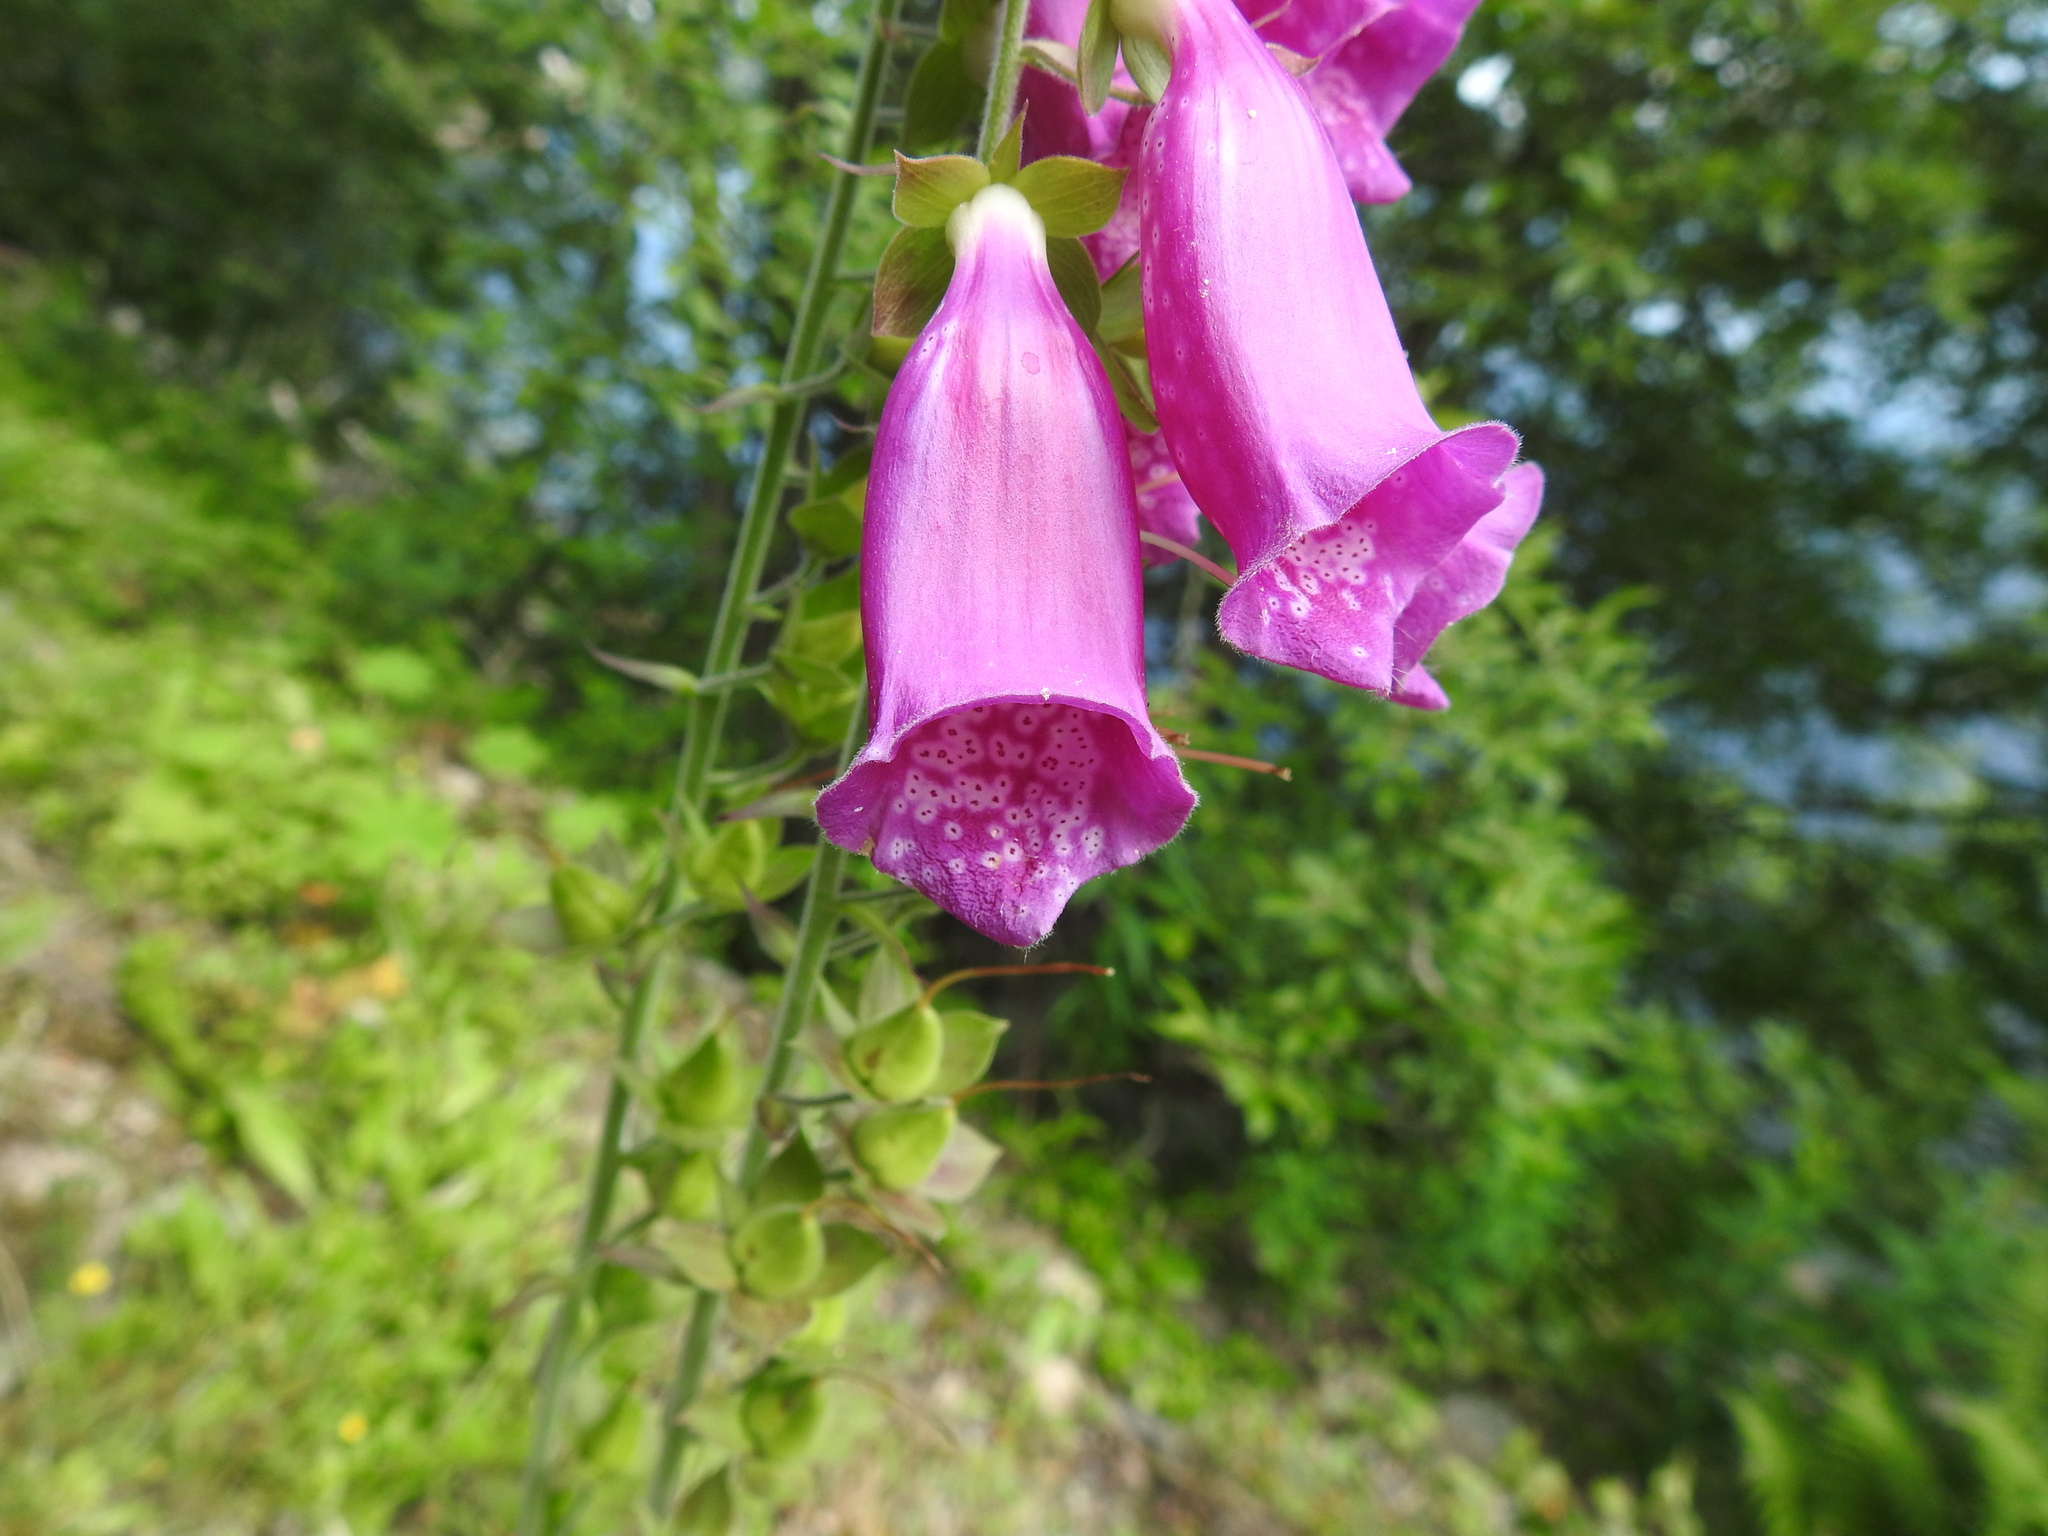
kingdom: Plantae
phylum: Tracheophyta
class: Magnoliopsida
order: Lamiales
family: Plantaginaceae
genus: Digitalis
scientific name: Digitalis purpurea
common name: Foxglove
